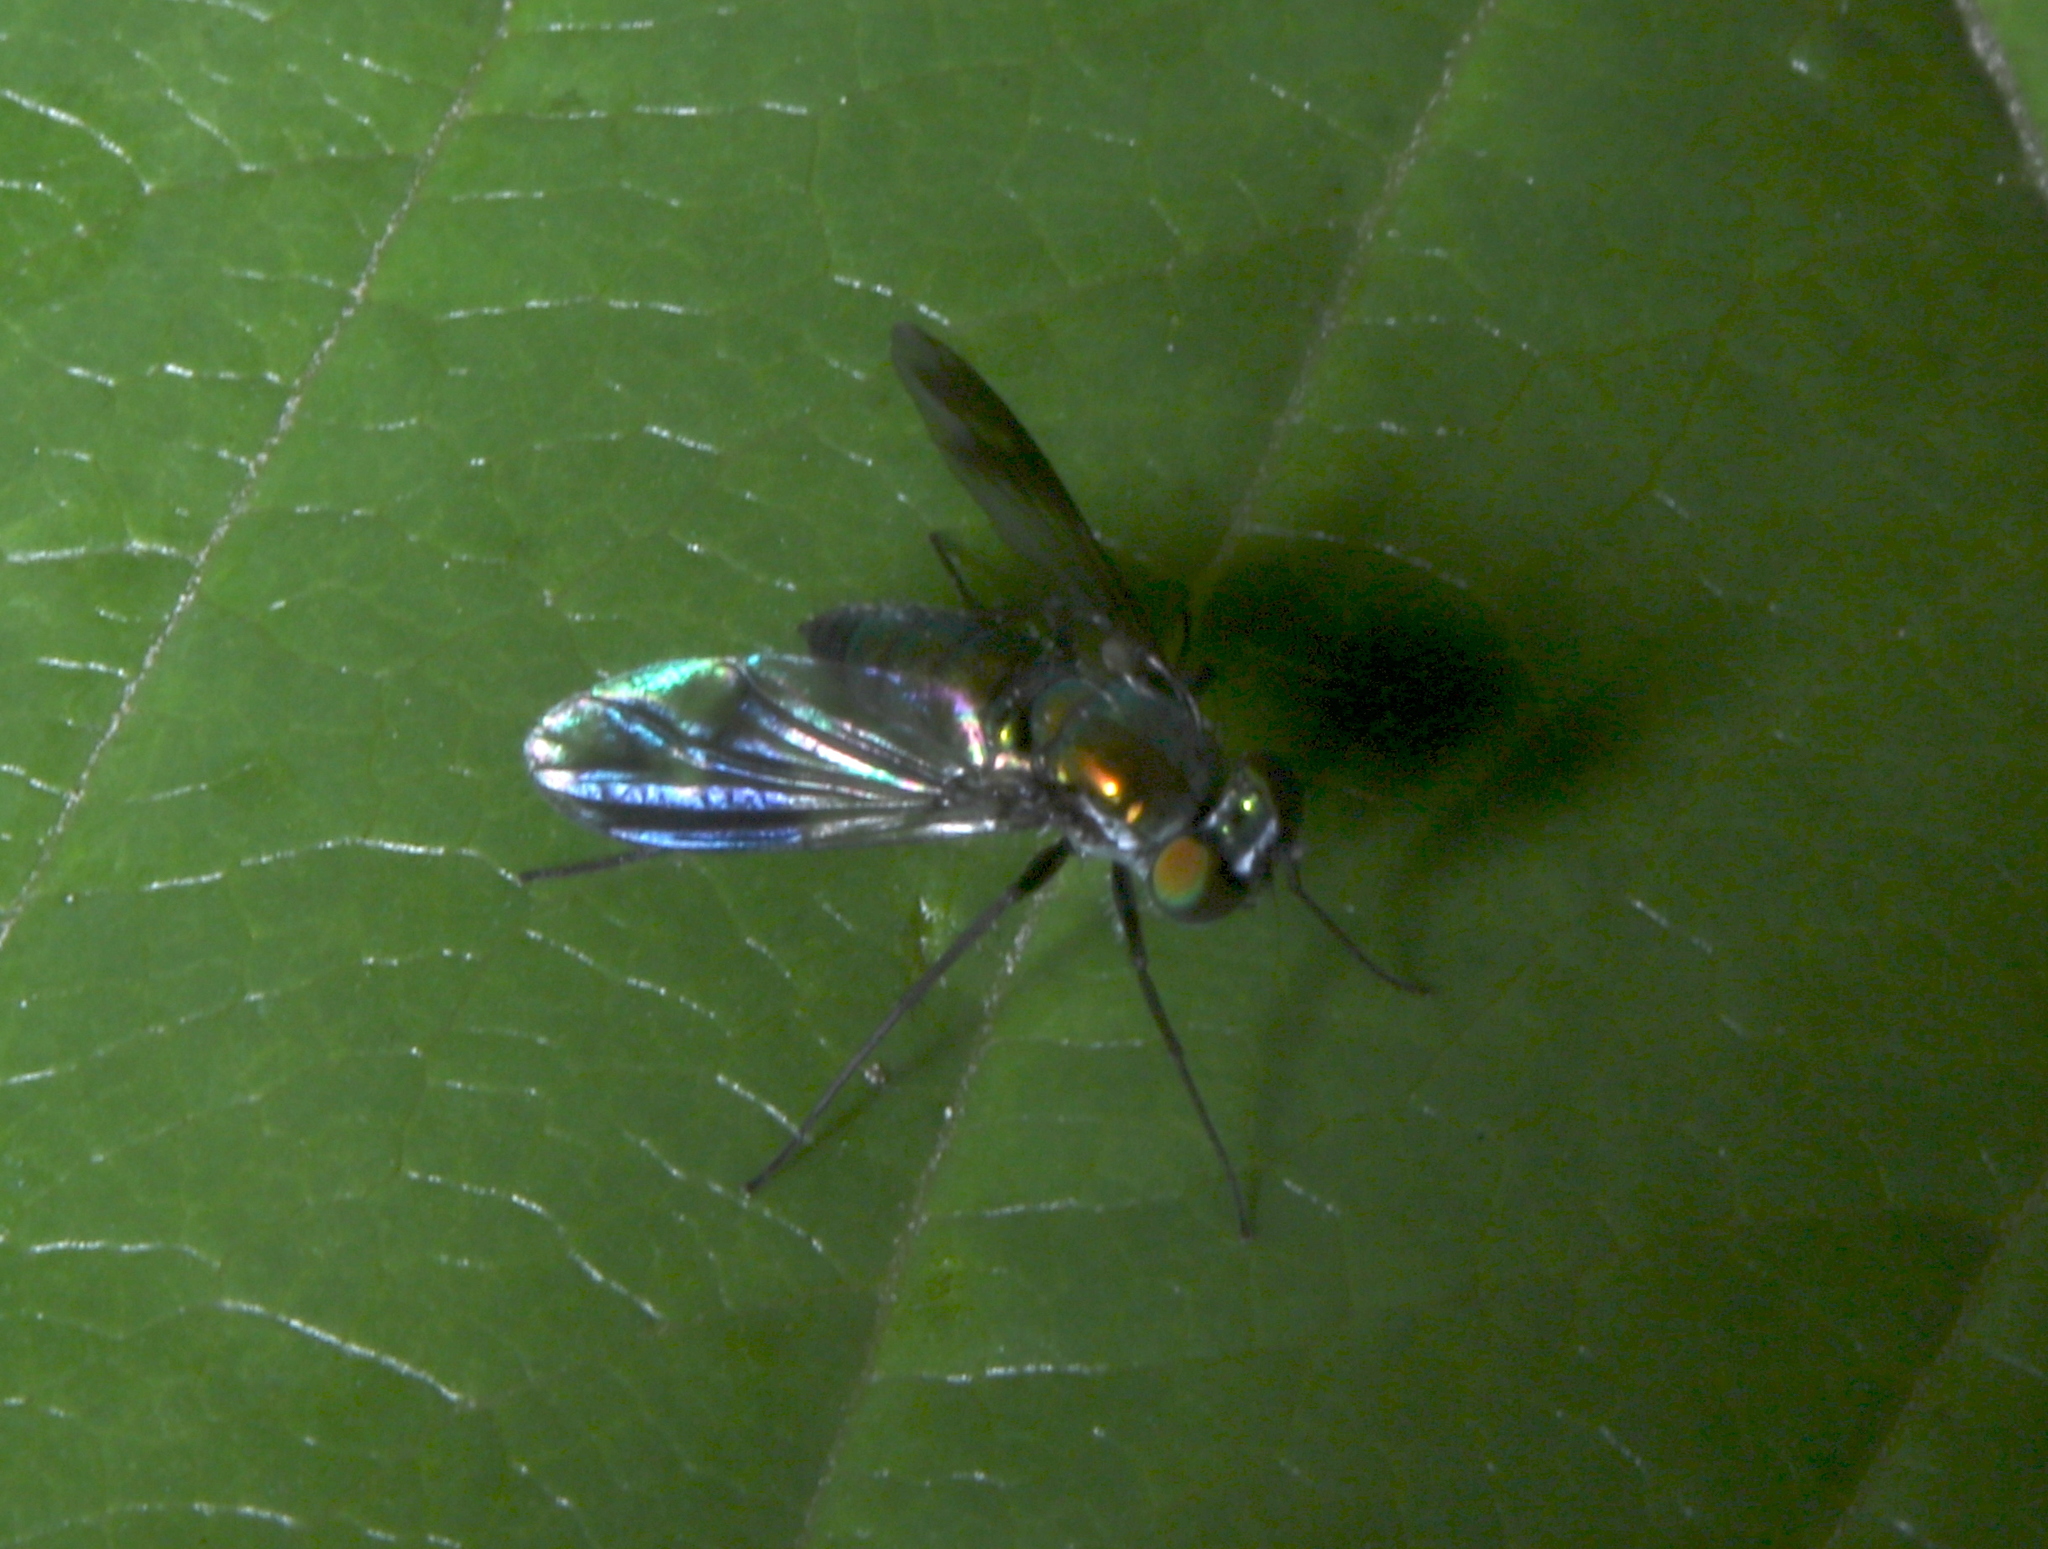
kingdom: Animalia
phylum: Arthropoda
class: Insecta
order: Diptera
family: Dolichopodidae
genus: Condylostylus
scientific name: Condylostylus patibulatus
